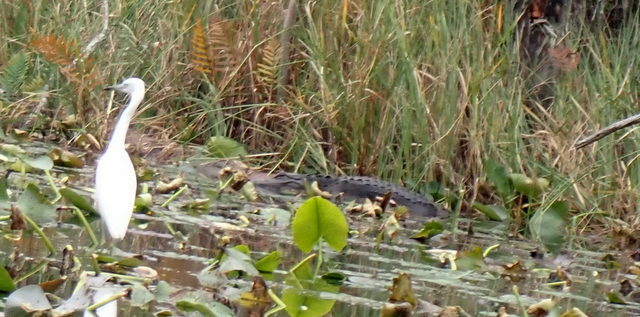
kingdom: Animalia
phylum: Chordata
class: Aves
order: Pelecaniformes
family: Ardeidae
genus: Egretta
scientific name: Egretta caerulea
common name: Little blue heron
